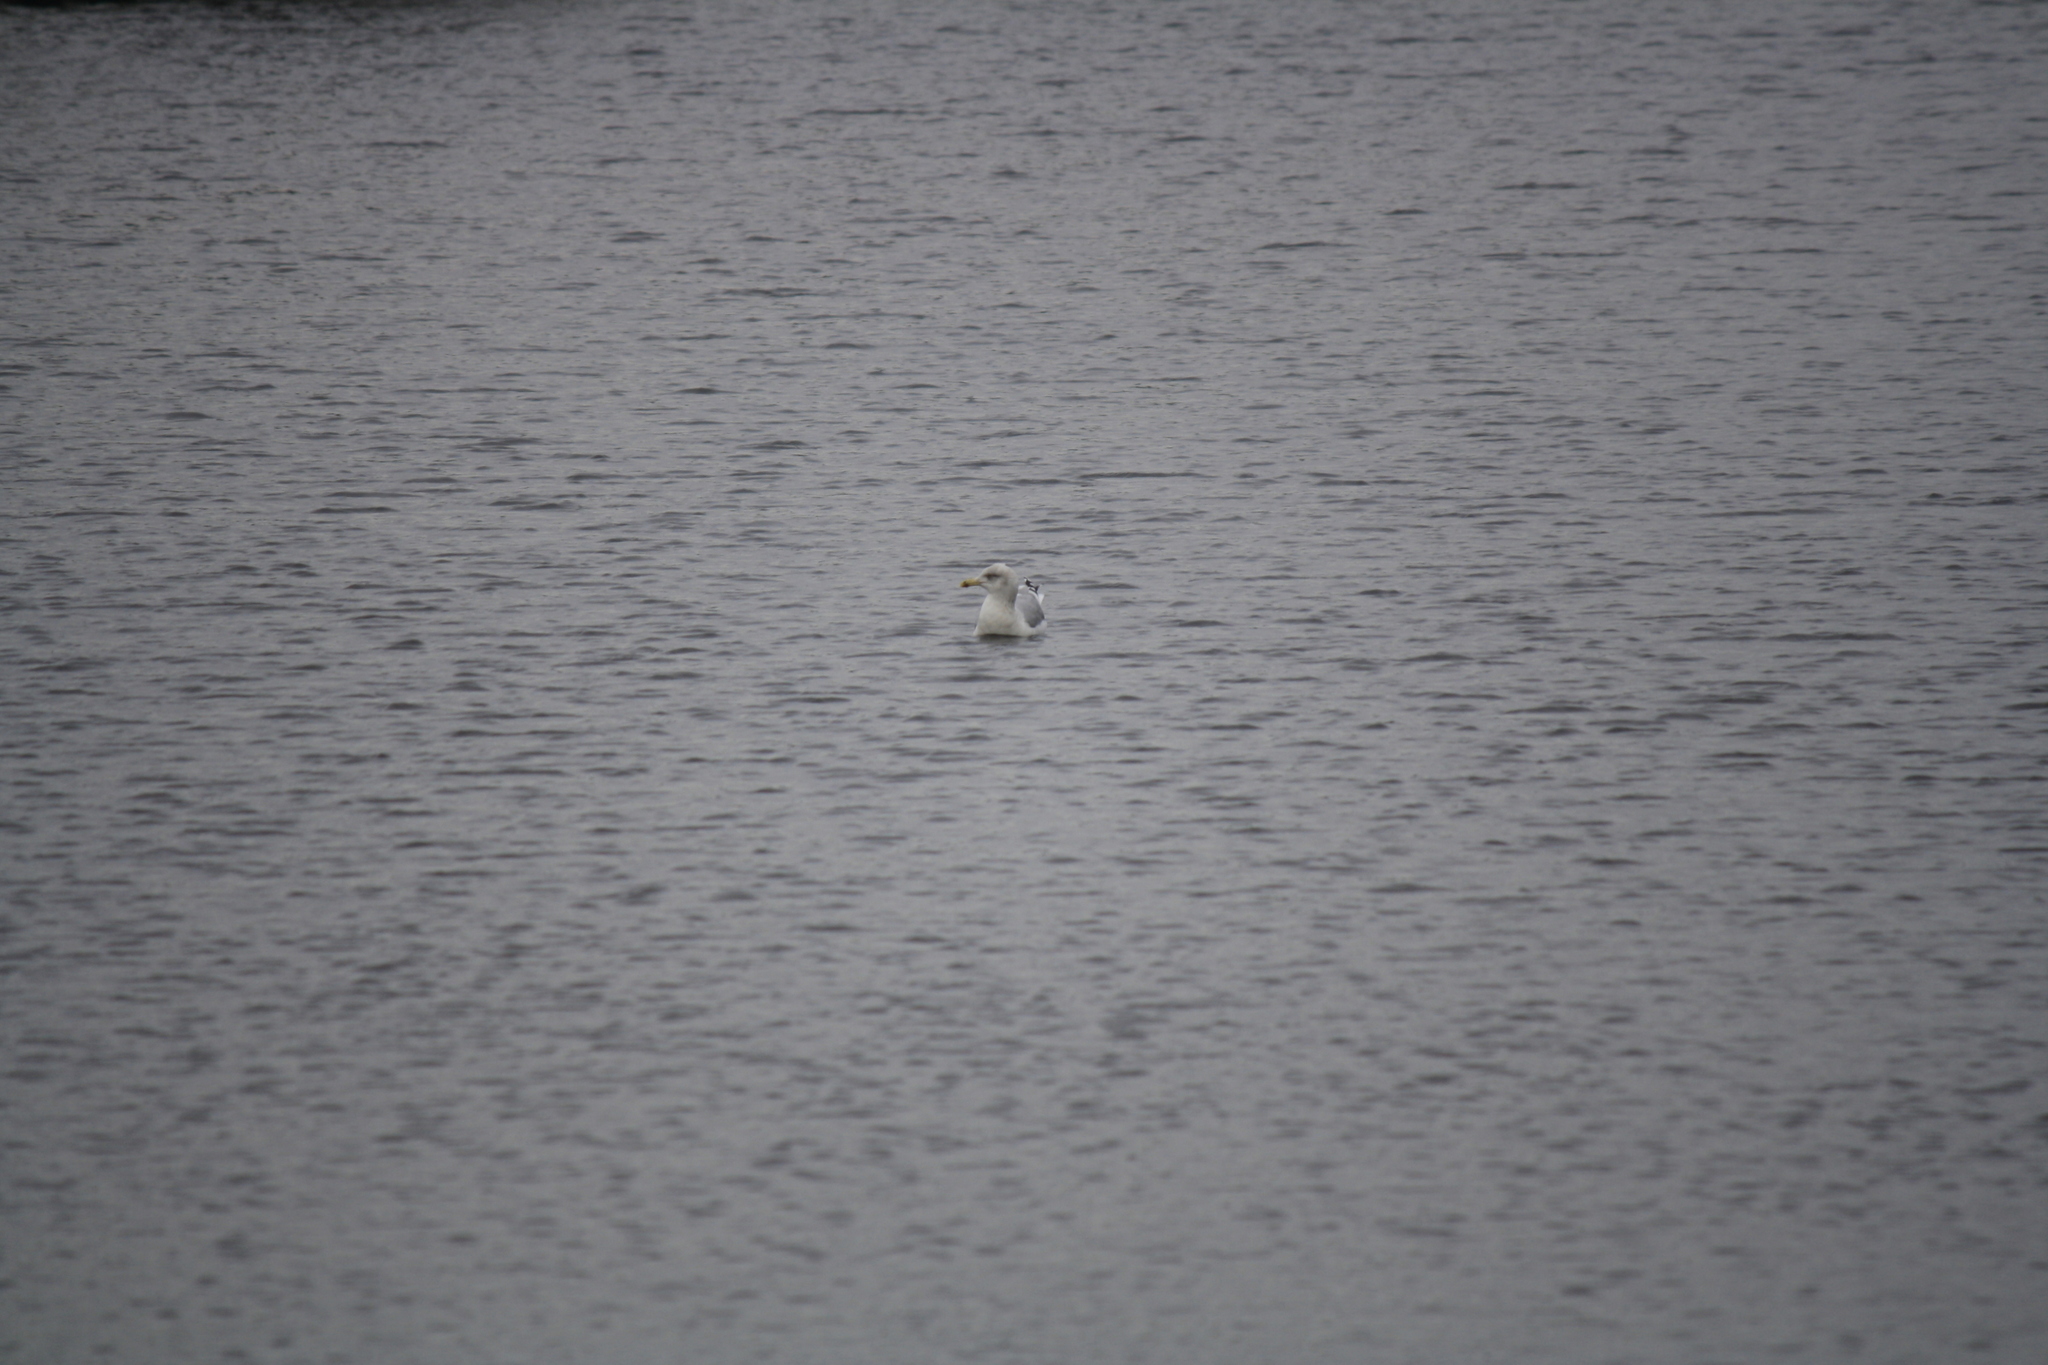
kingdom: Animalia
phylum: Chordata
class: Aves
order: Charadriiformes
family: Laridae
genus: Larus
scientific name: Larus argentatus
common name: Herring gull
